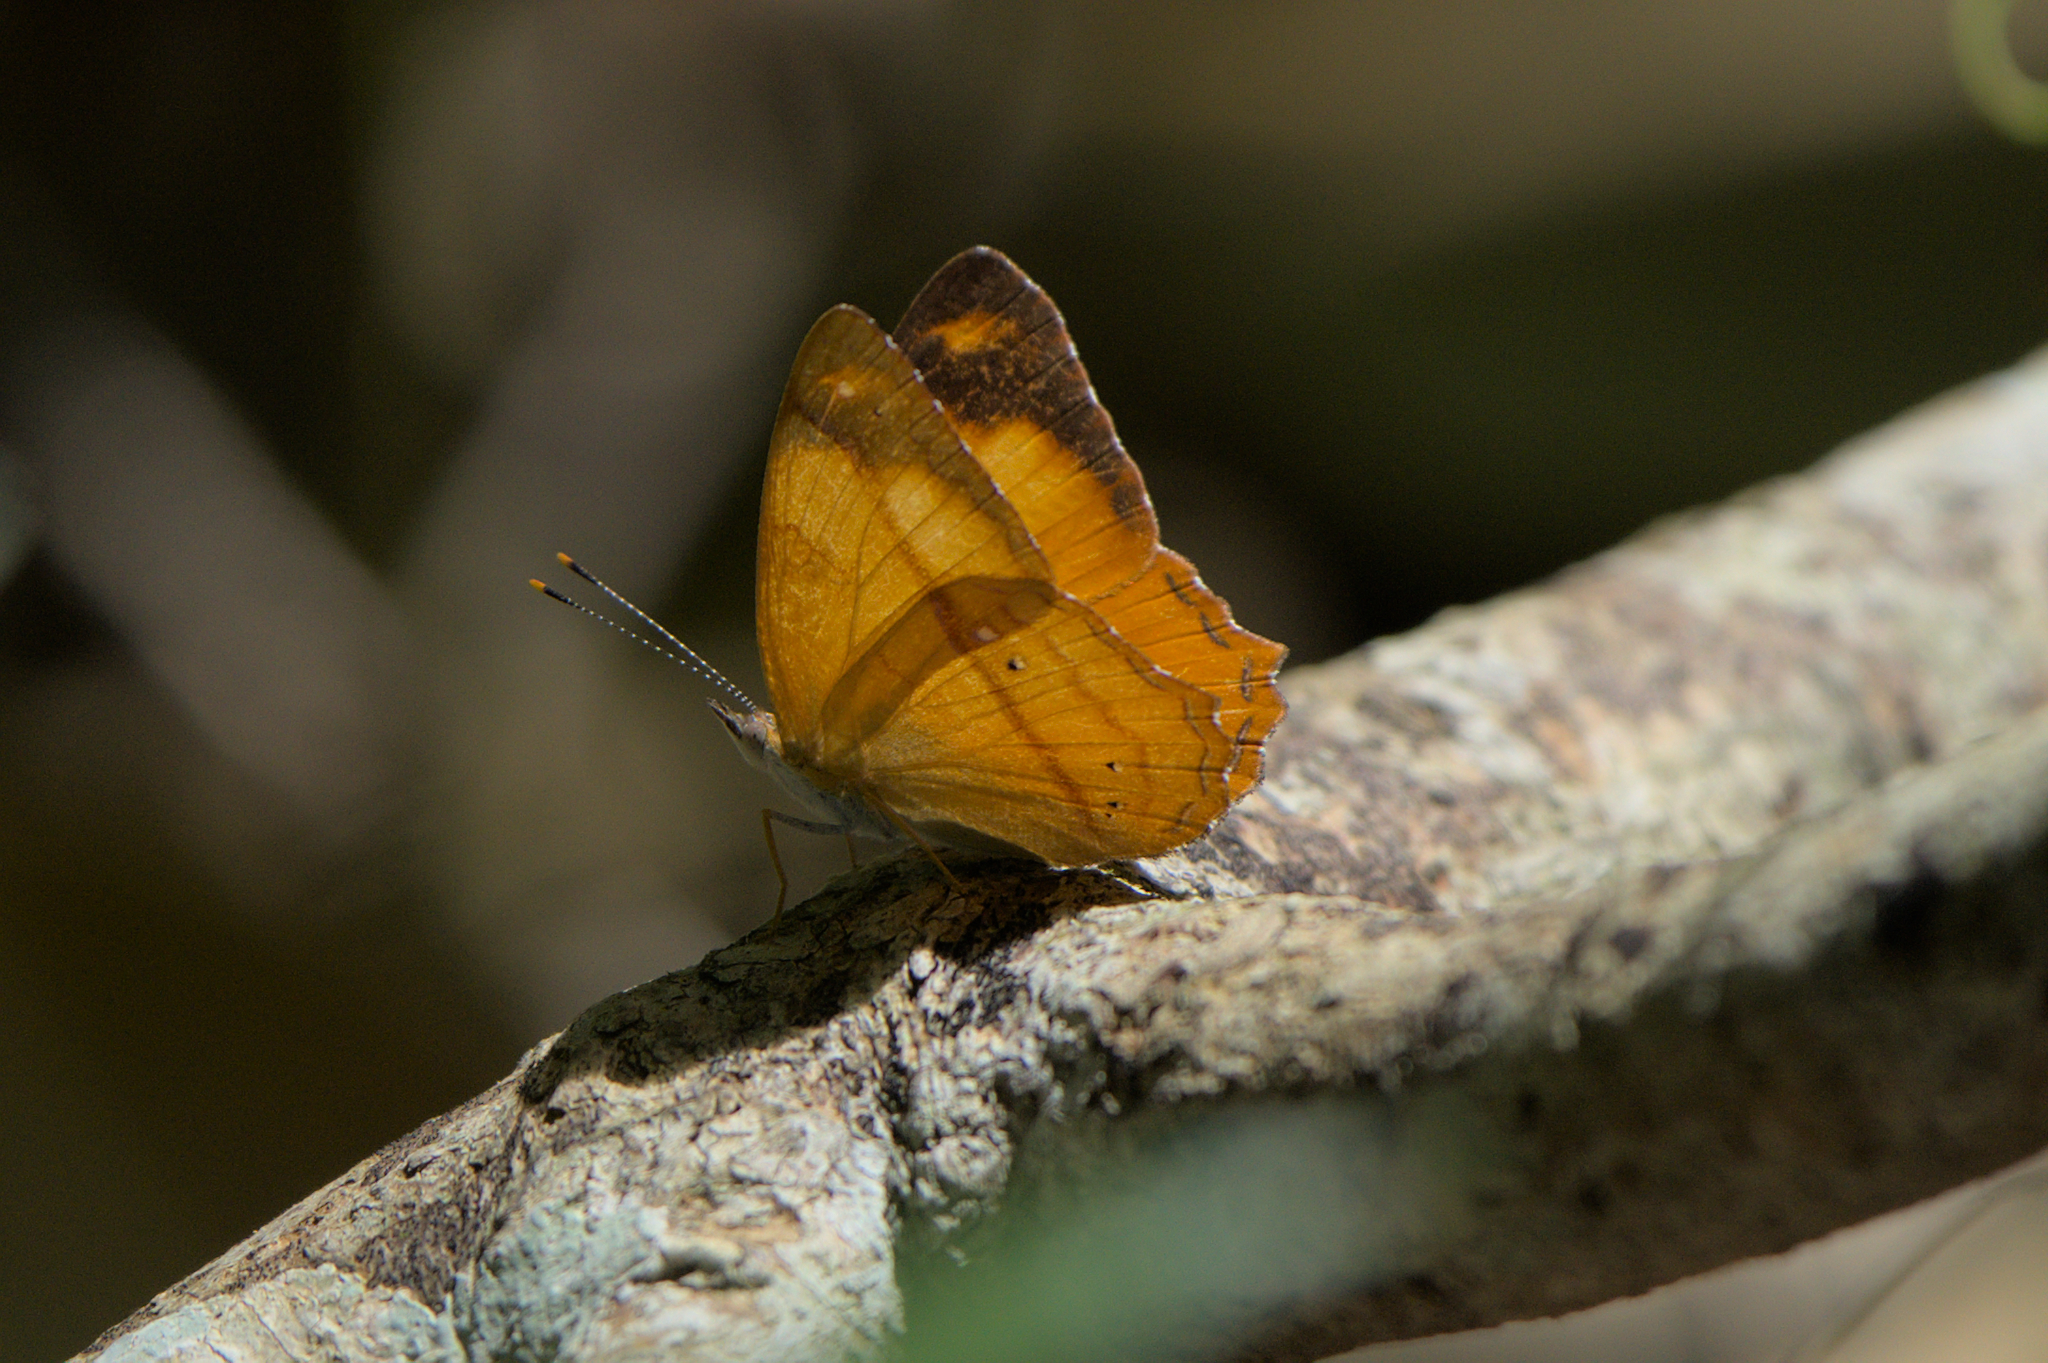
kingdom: Animalia
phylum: Arthropoda
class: Insecta
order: Lepidoptera
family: Nymphalidae
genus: Nica
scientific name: Nica flavilla
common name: Mandarin nica
